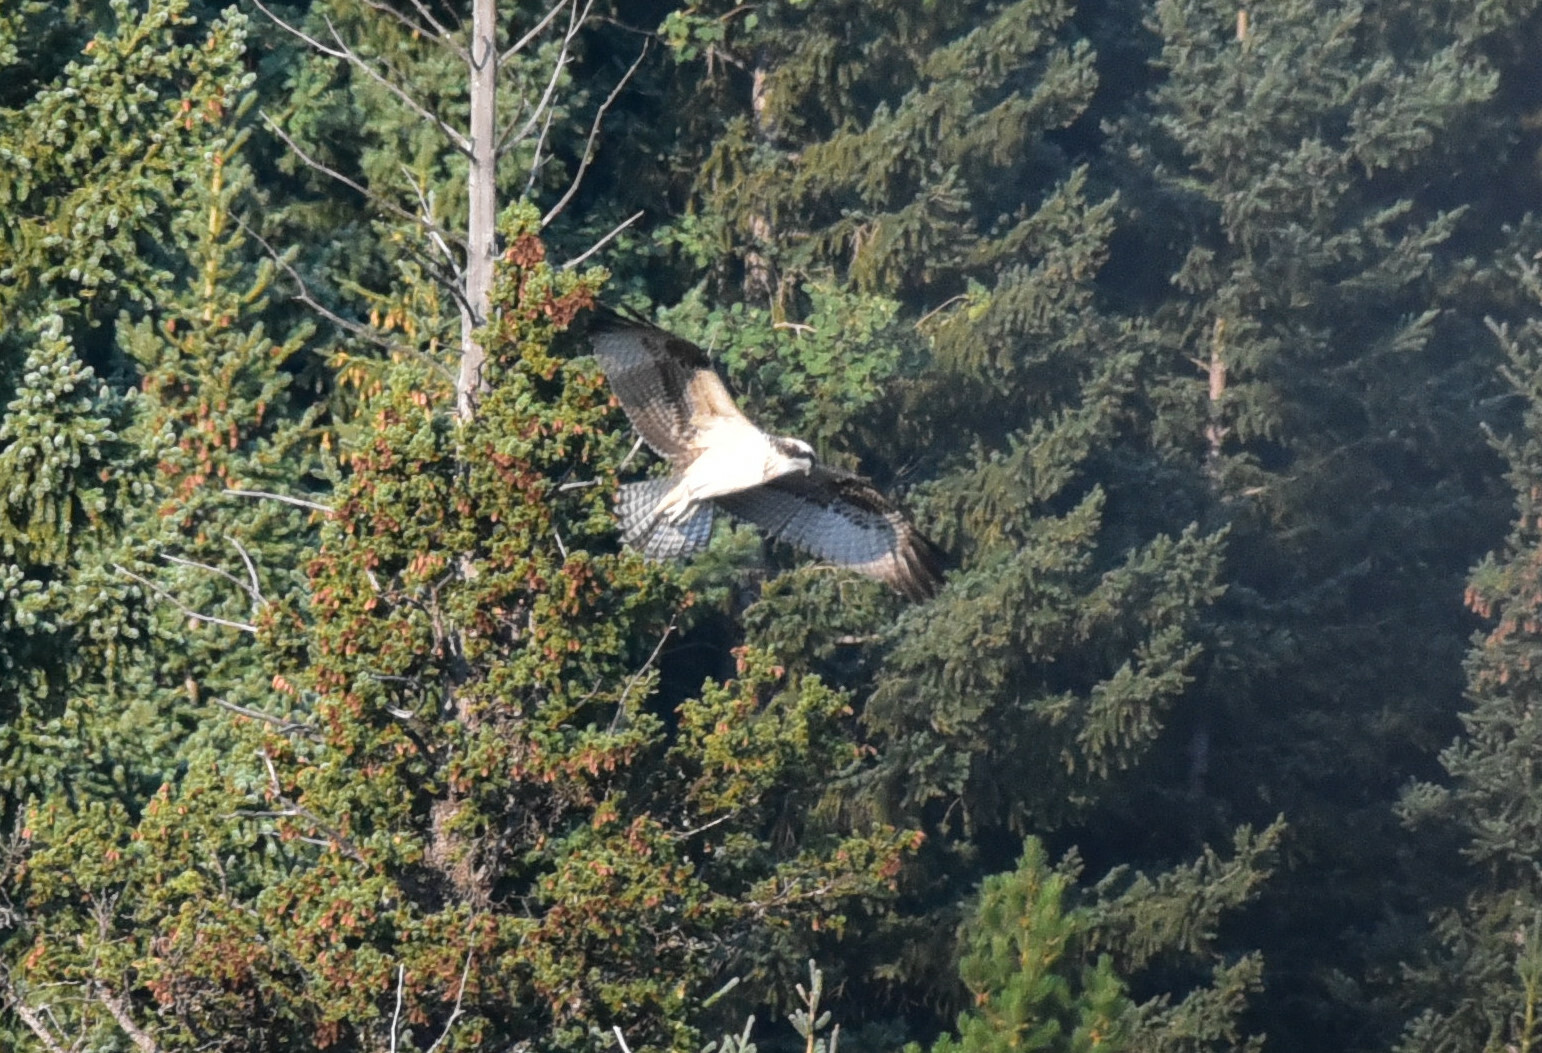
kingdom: Animalia
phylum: Chordata
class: Aves
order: Accipitriformes
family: Pandionidae
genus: Pandion
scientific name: Pandion haliaetus
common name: Osprey
